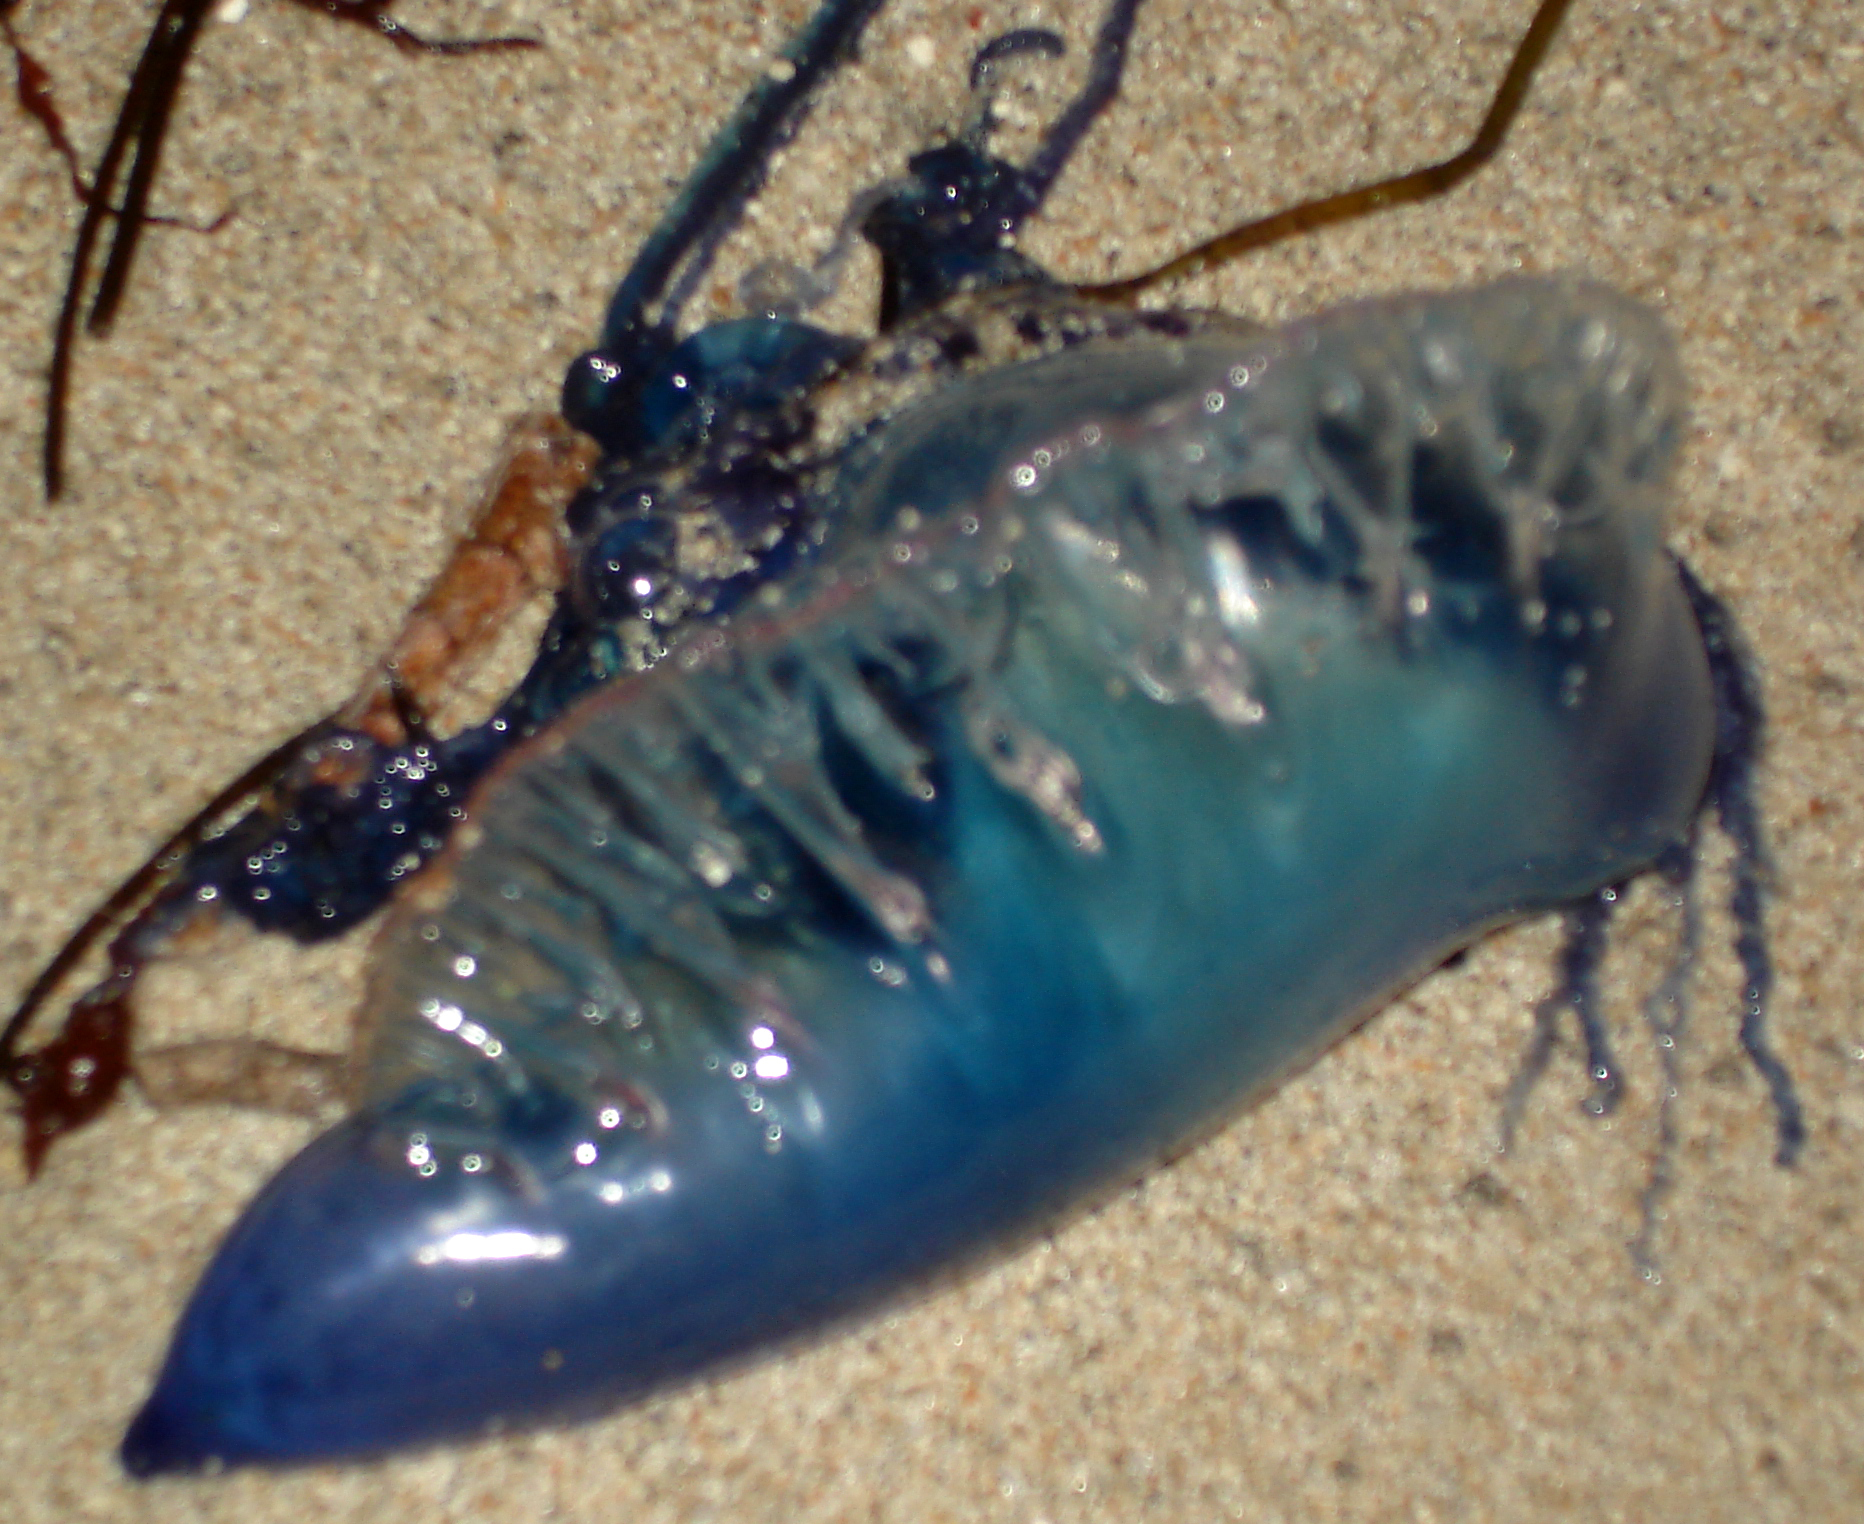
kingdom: Animalia
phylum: Cnidaria
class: Hydrozoa
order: Siphonophorae
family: Physaliidae
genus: Physalia
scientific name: Physalia physalis
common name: Portuguese man-of-war
